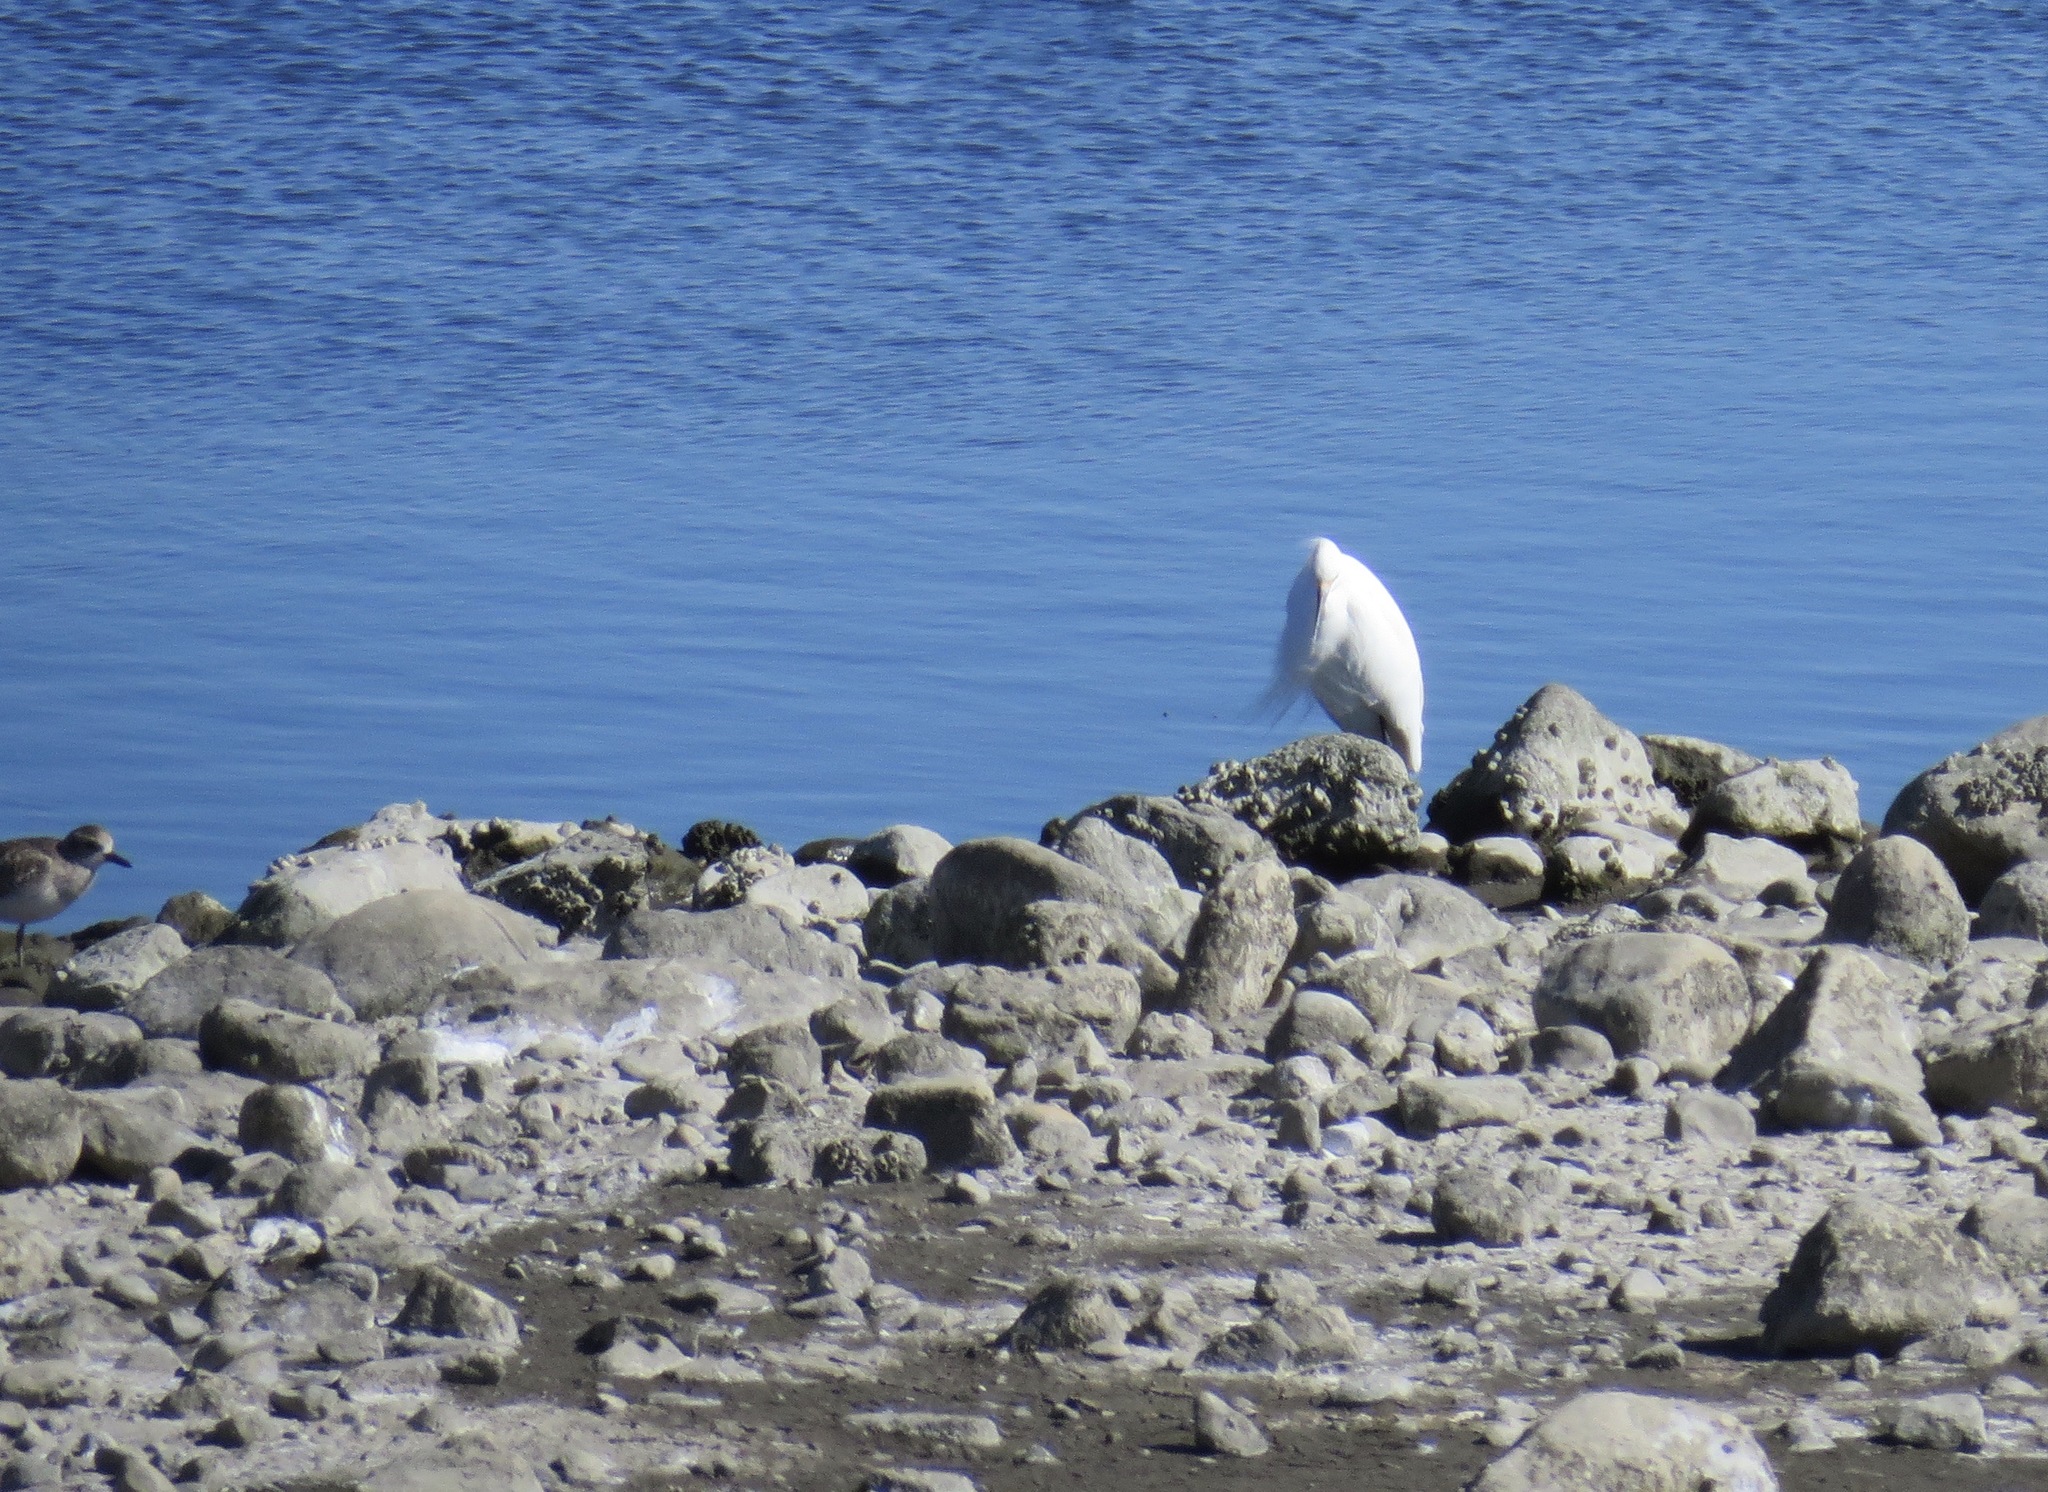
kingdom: Animalia
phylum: Chordata
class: Aves
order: Pelecaniformes
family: Ardeidae
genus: Egretta
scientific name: Egretta thula
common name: Snowy egret
